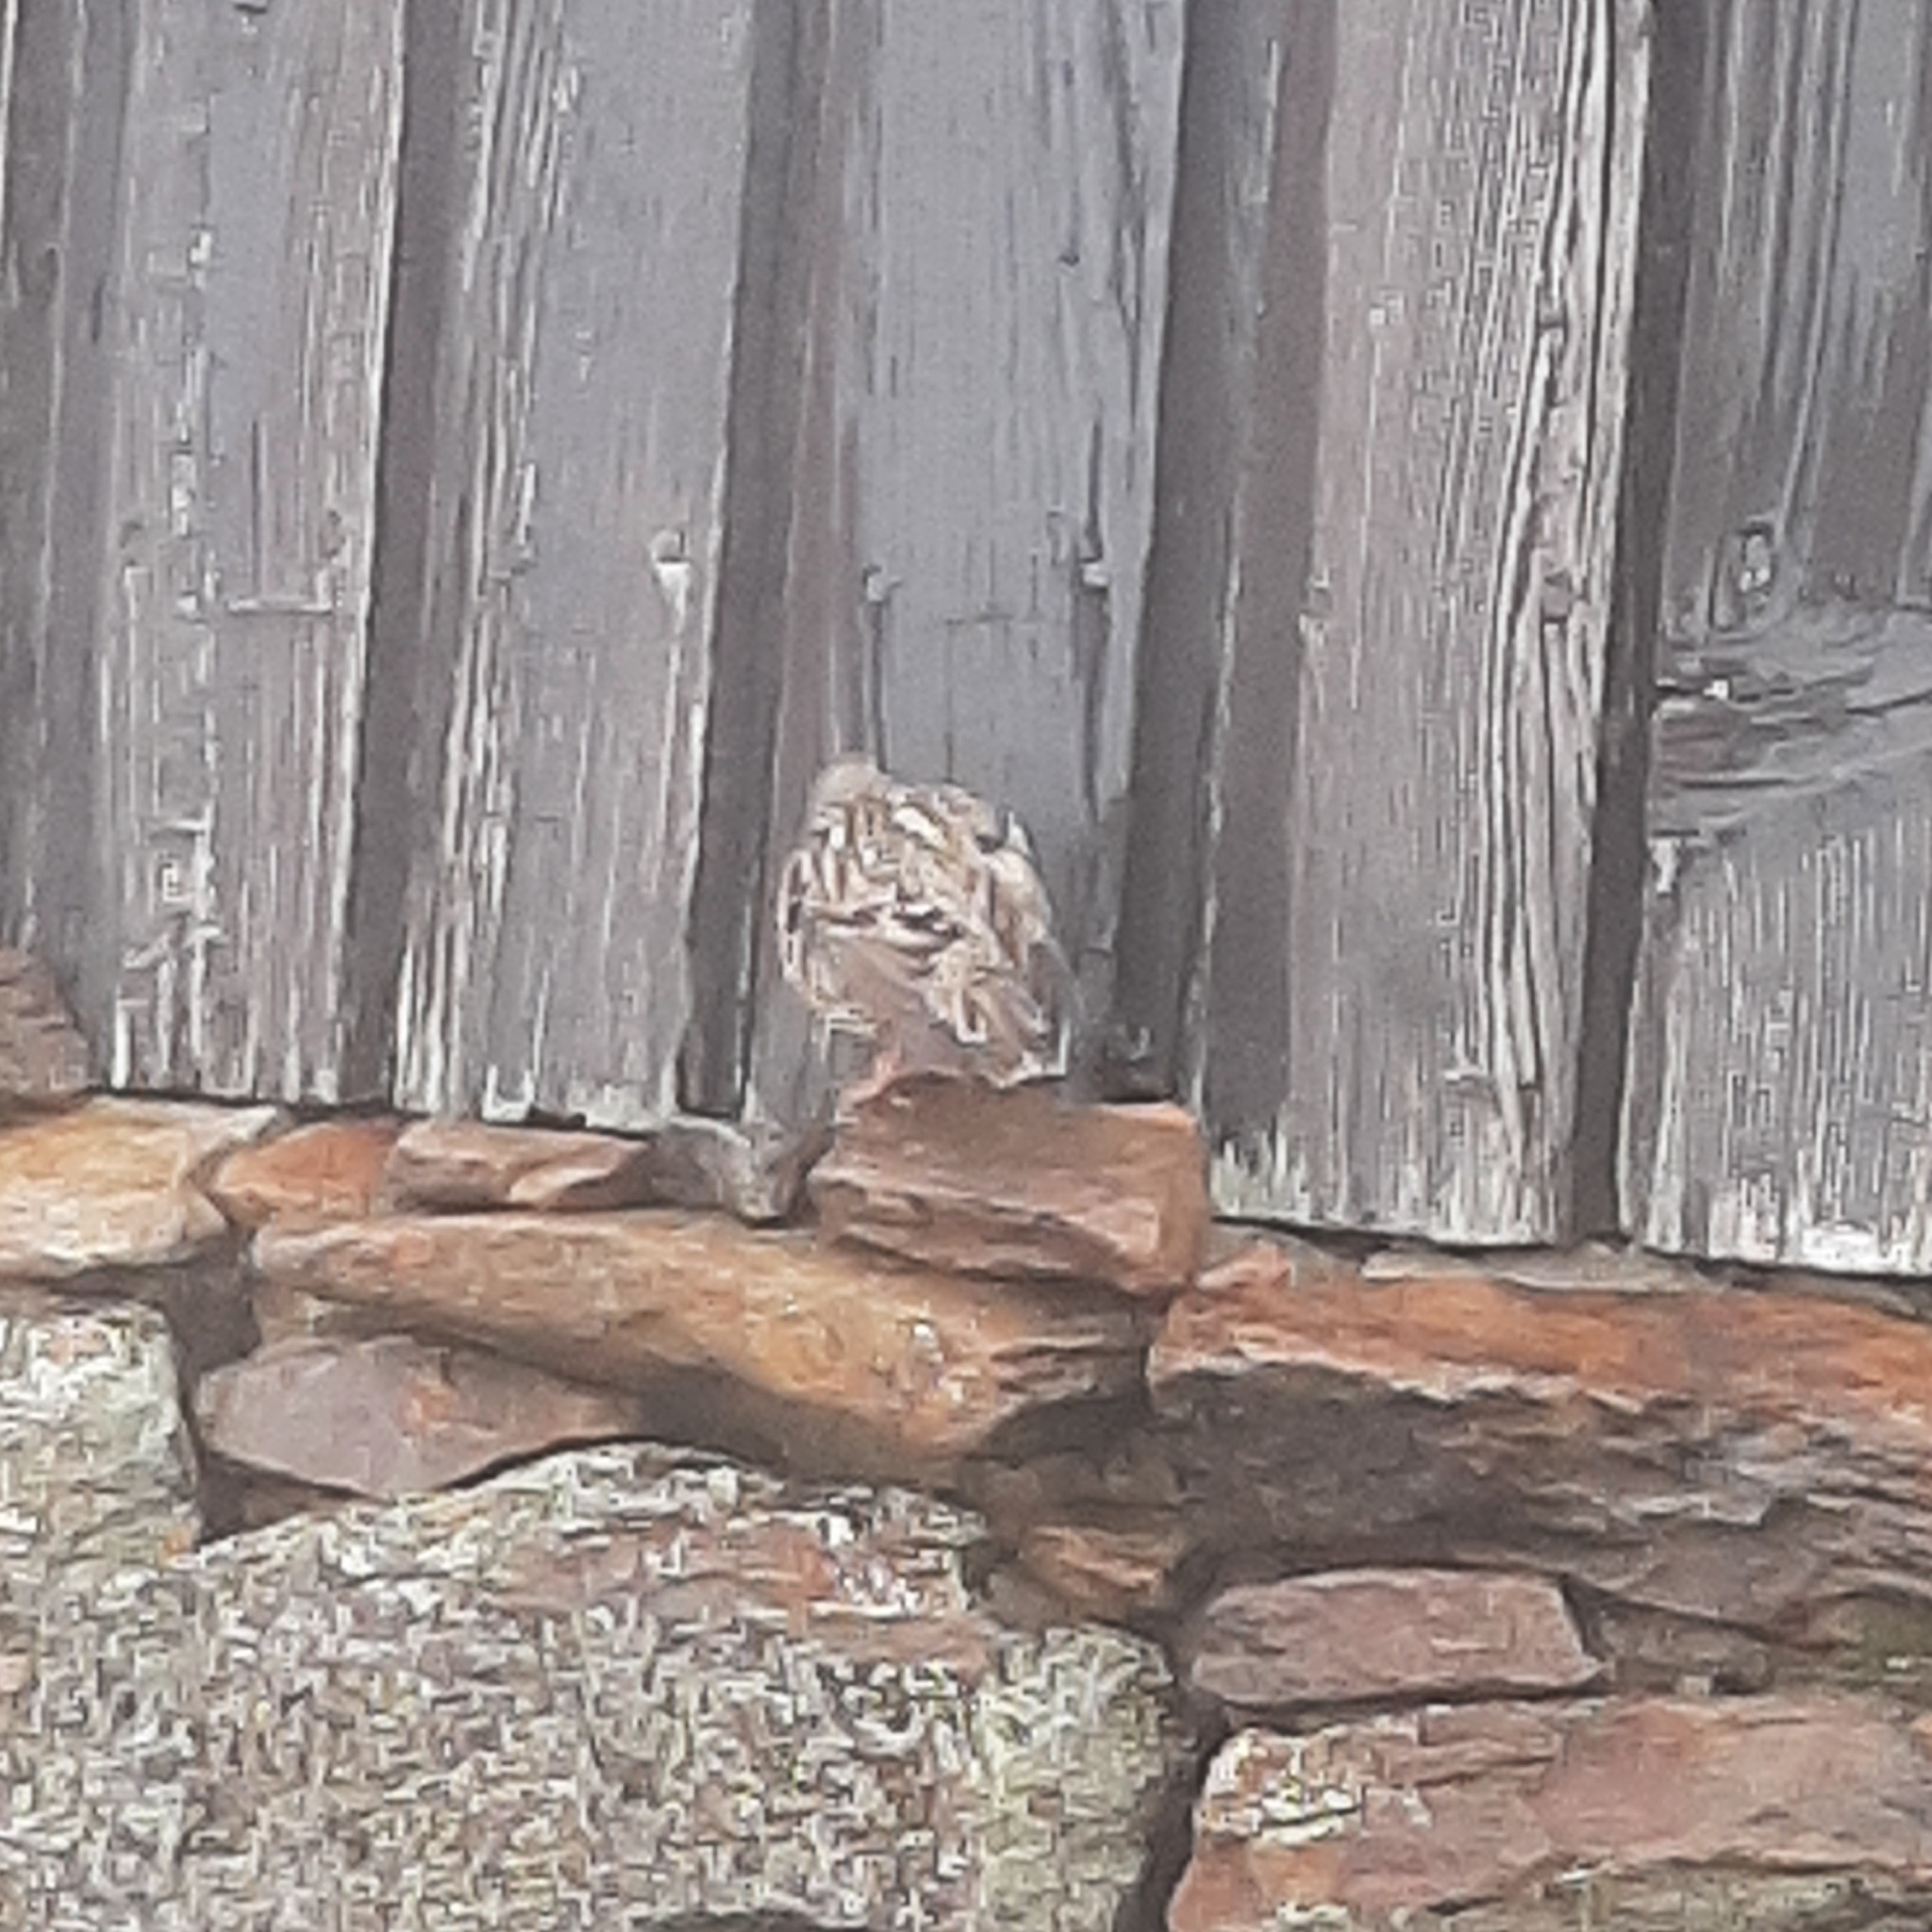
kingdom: Animalia
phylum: Chordata
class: Aves
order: Passeriformes
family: Prunellidae
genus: Prunella
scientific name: Prunella collaris
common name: Alpine accentor
